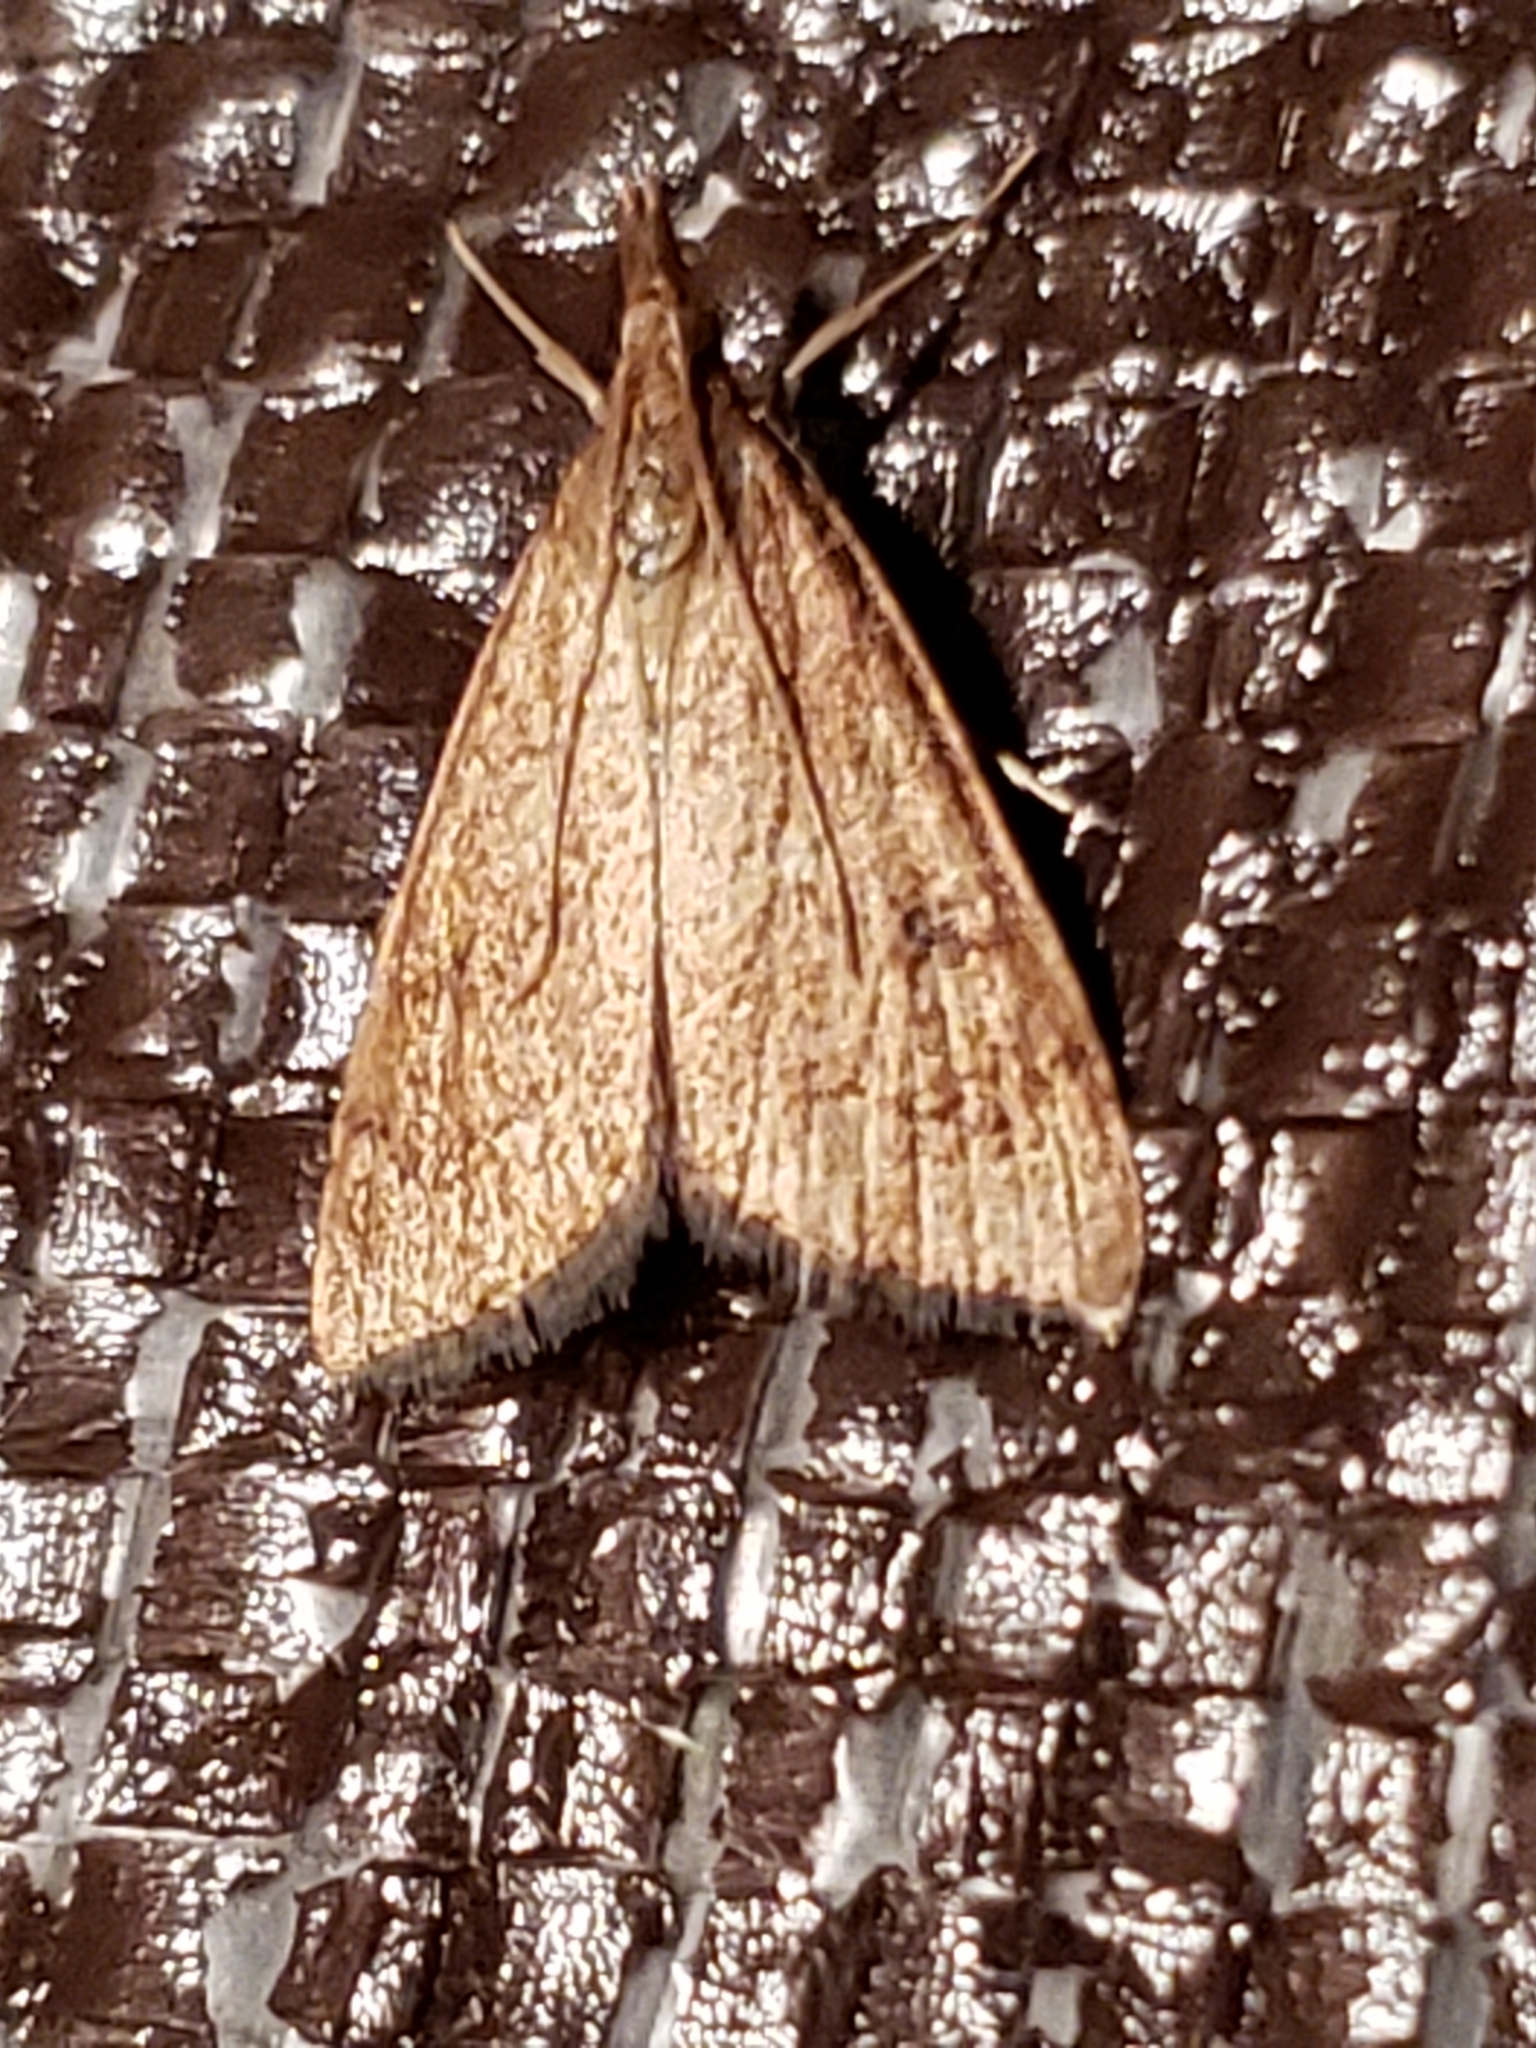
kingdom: Animalia
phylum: Arthropoda
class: Insecta
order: Lepidoptera
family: Crambidae
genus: Udea
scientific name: Udea rubigalis
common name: Celery leaftier moth
